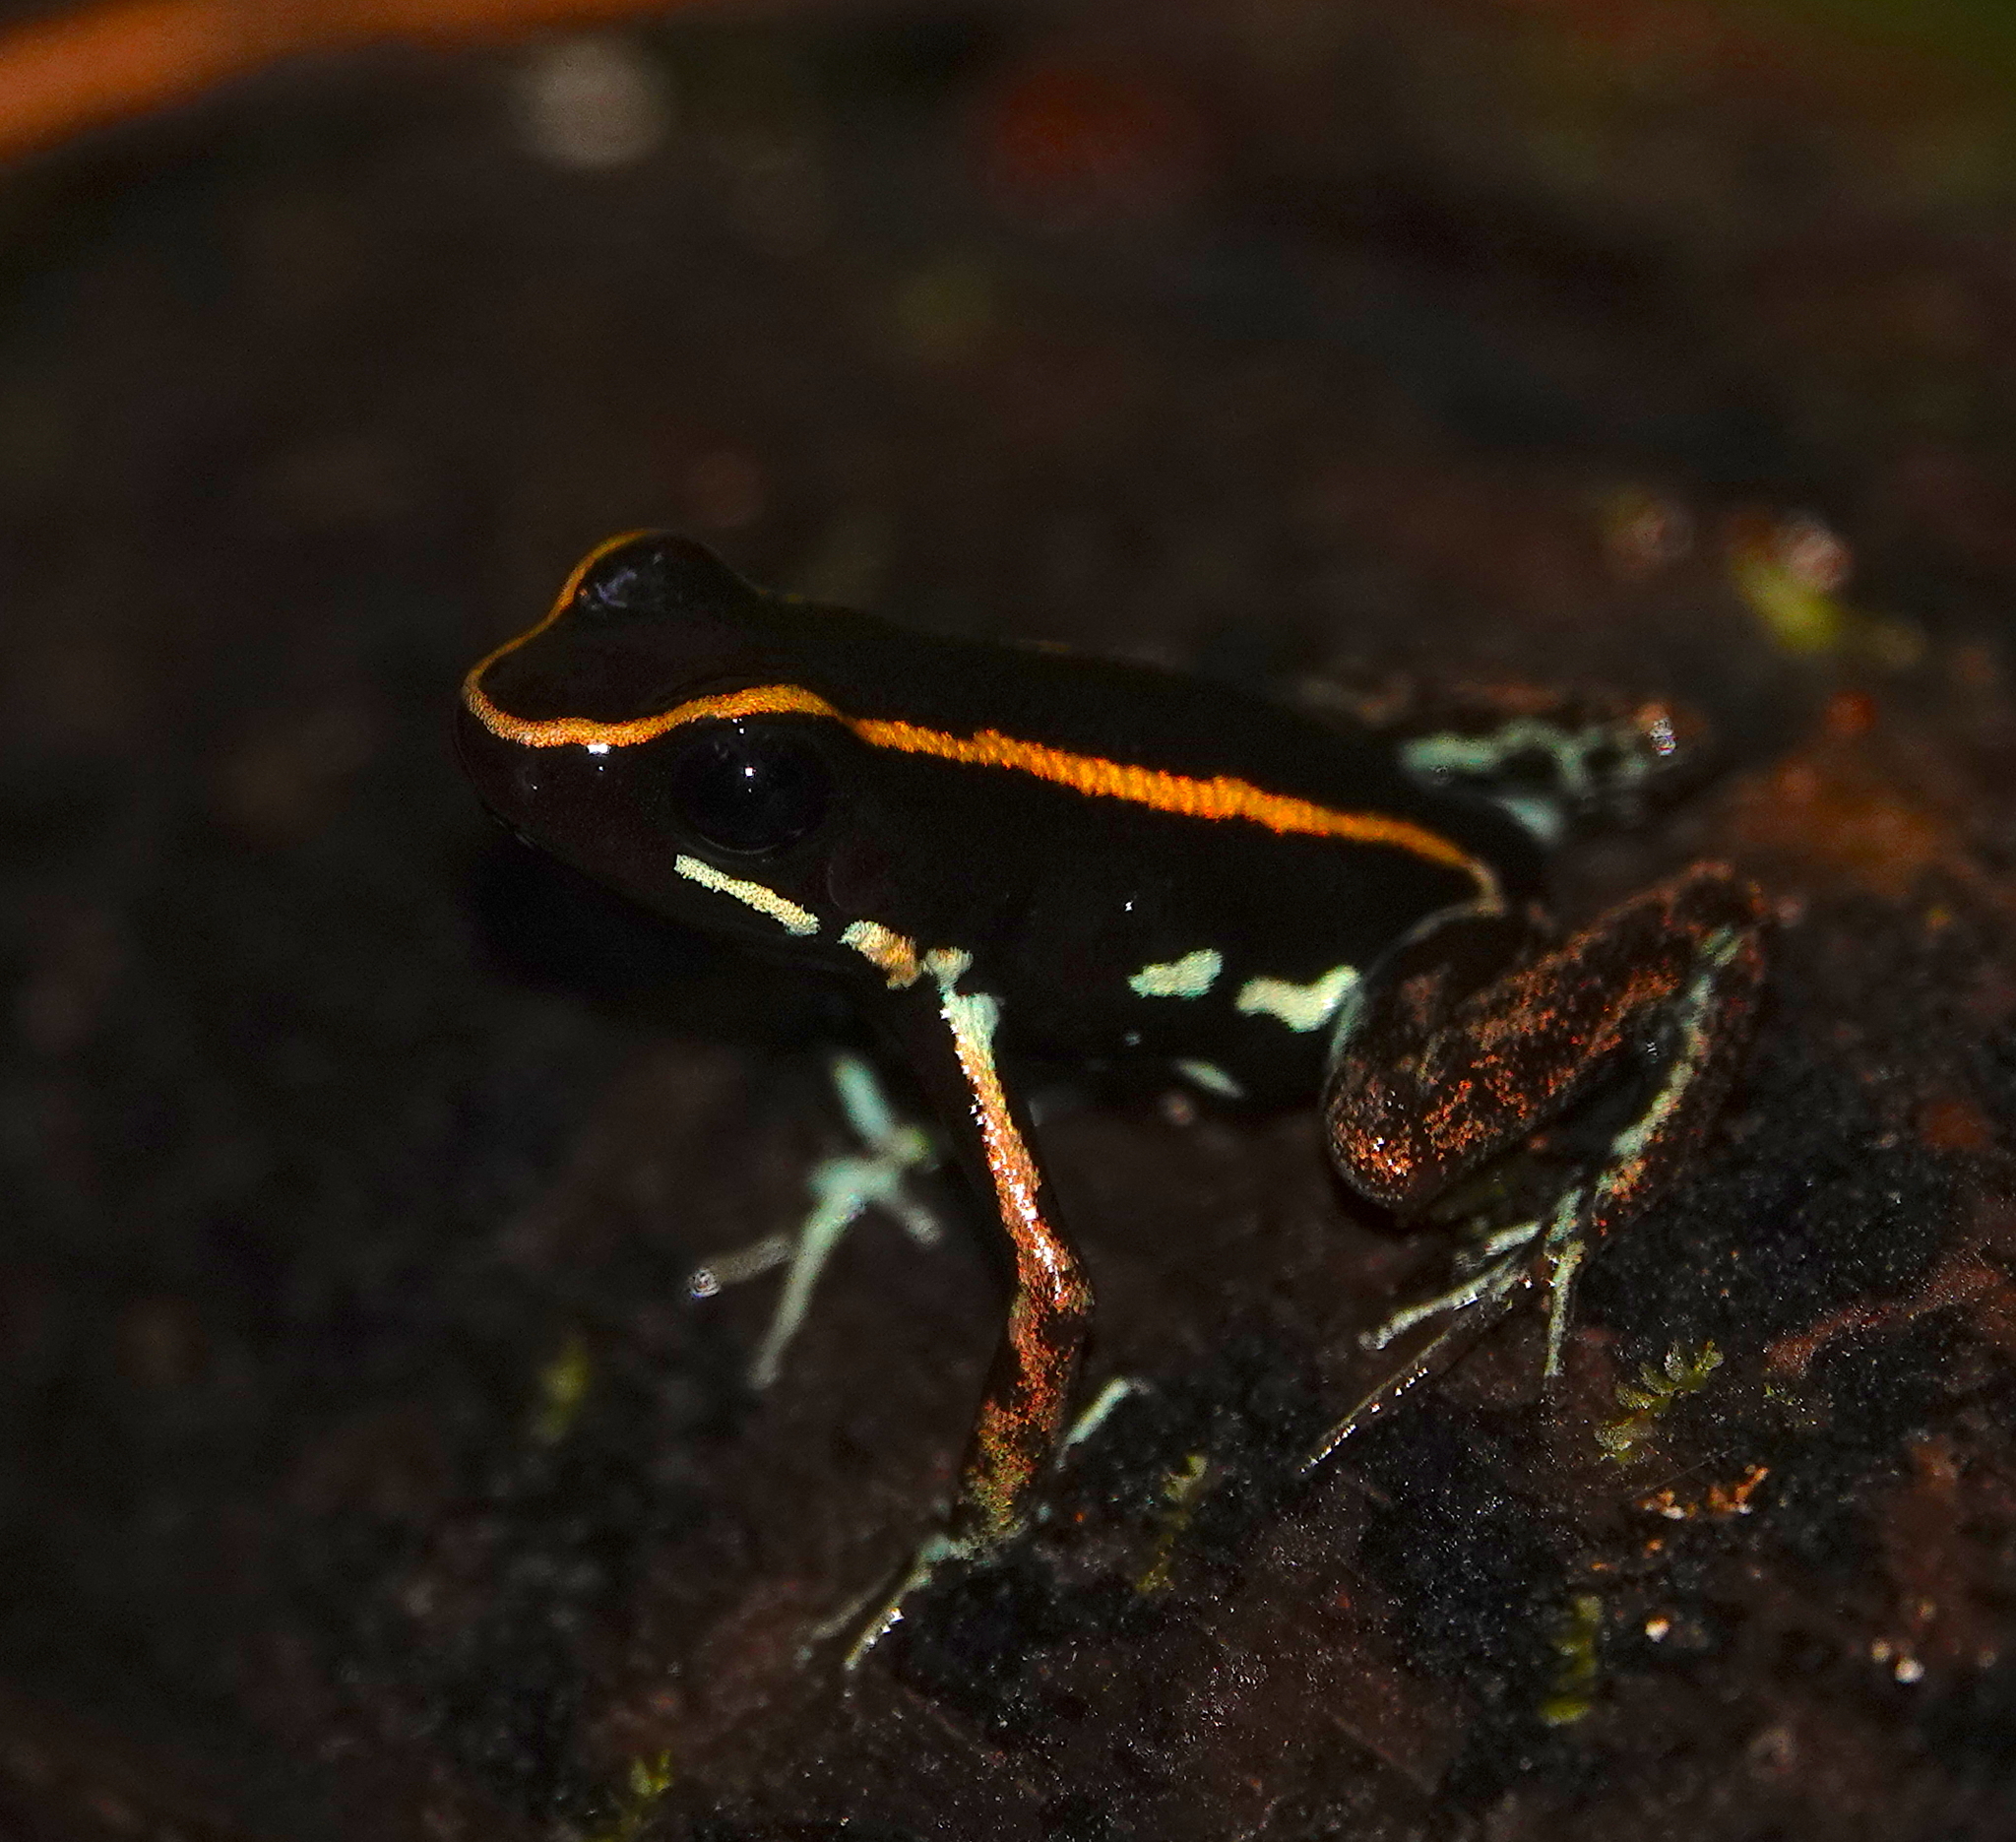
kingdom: Animalia
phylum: Chordata
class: Amphibia
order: Anura
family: Dendrobatidae
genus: Phyllobates
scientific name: Phyllobates lugubris
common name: Lovely poison frog
